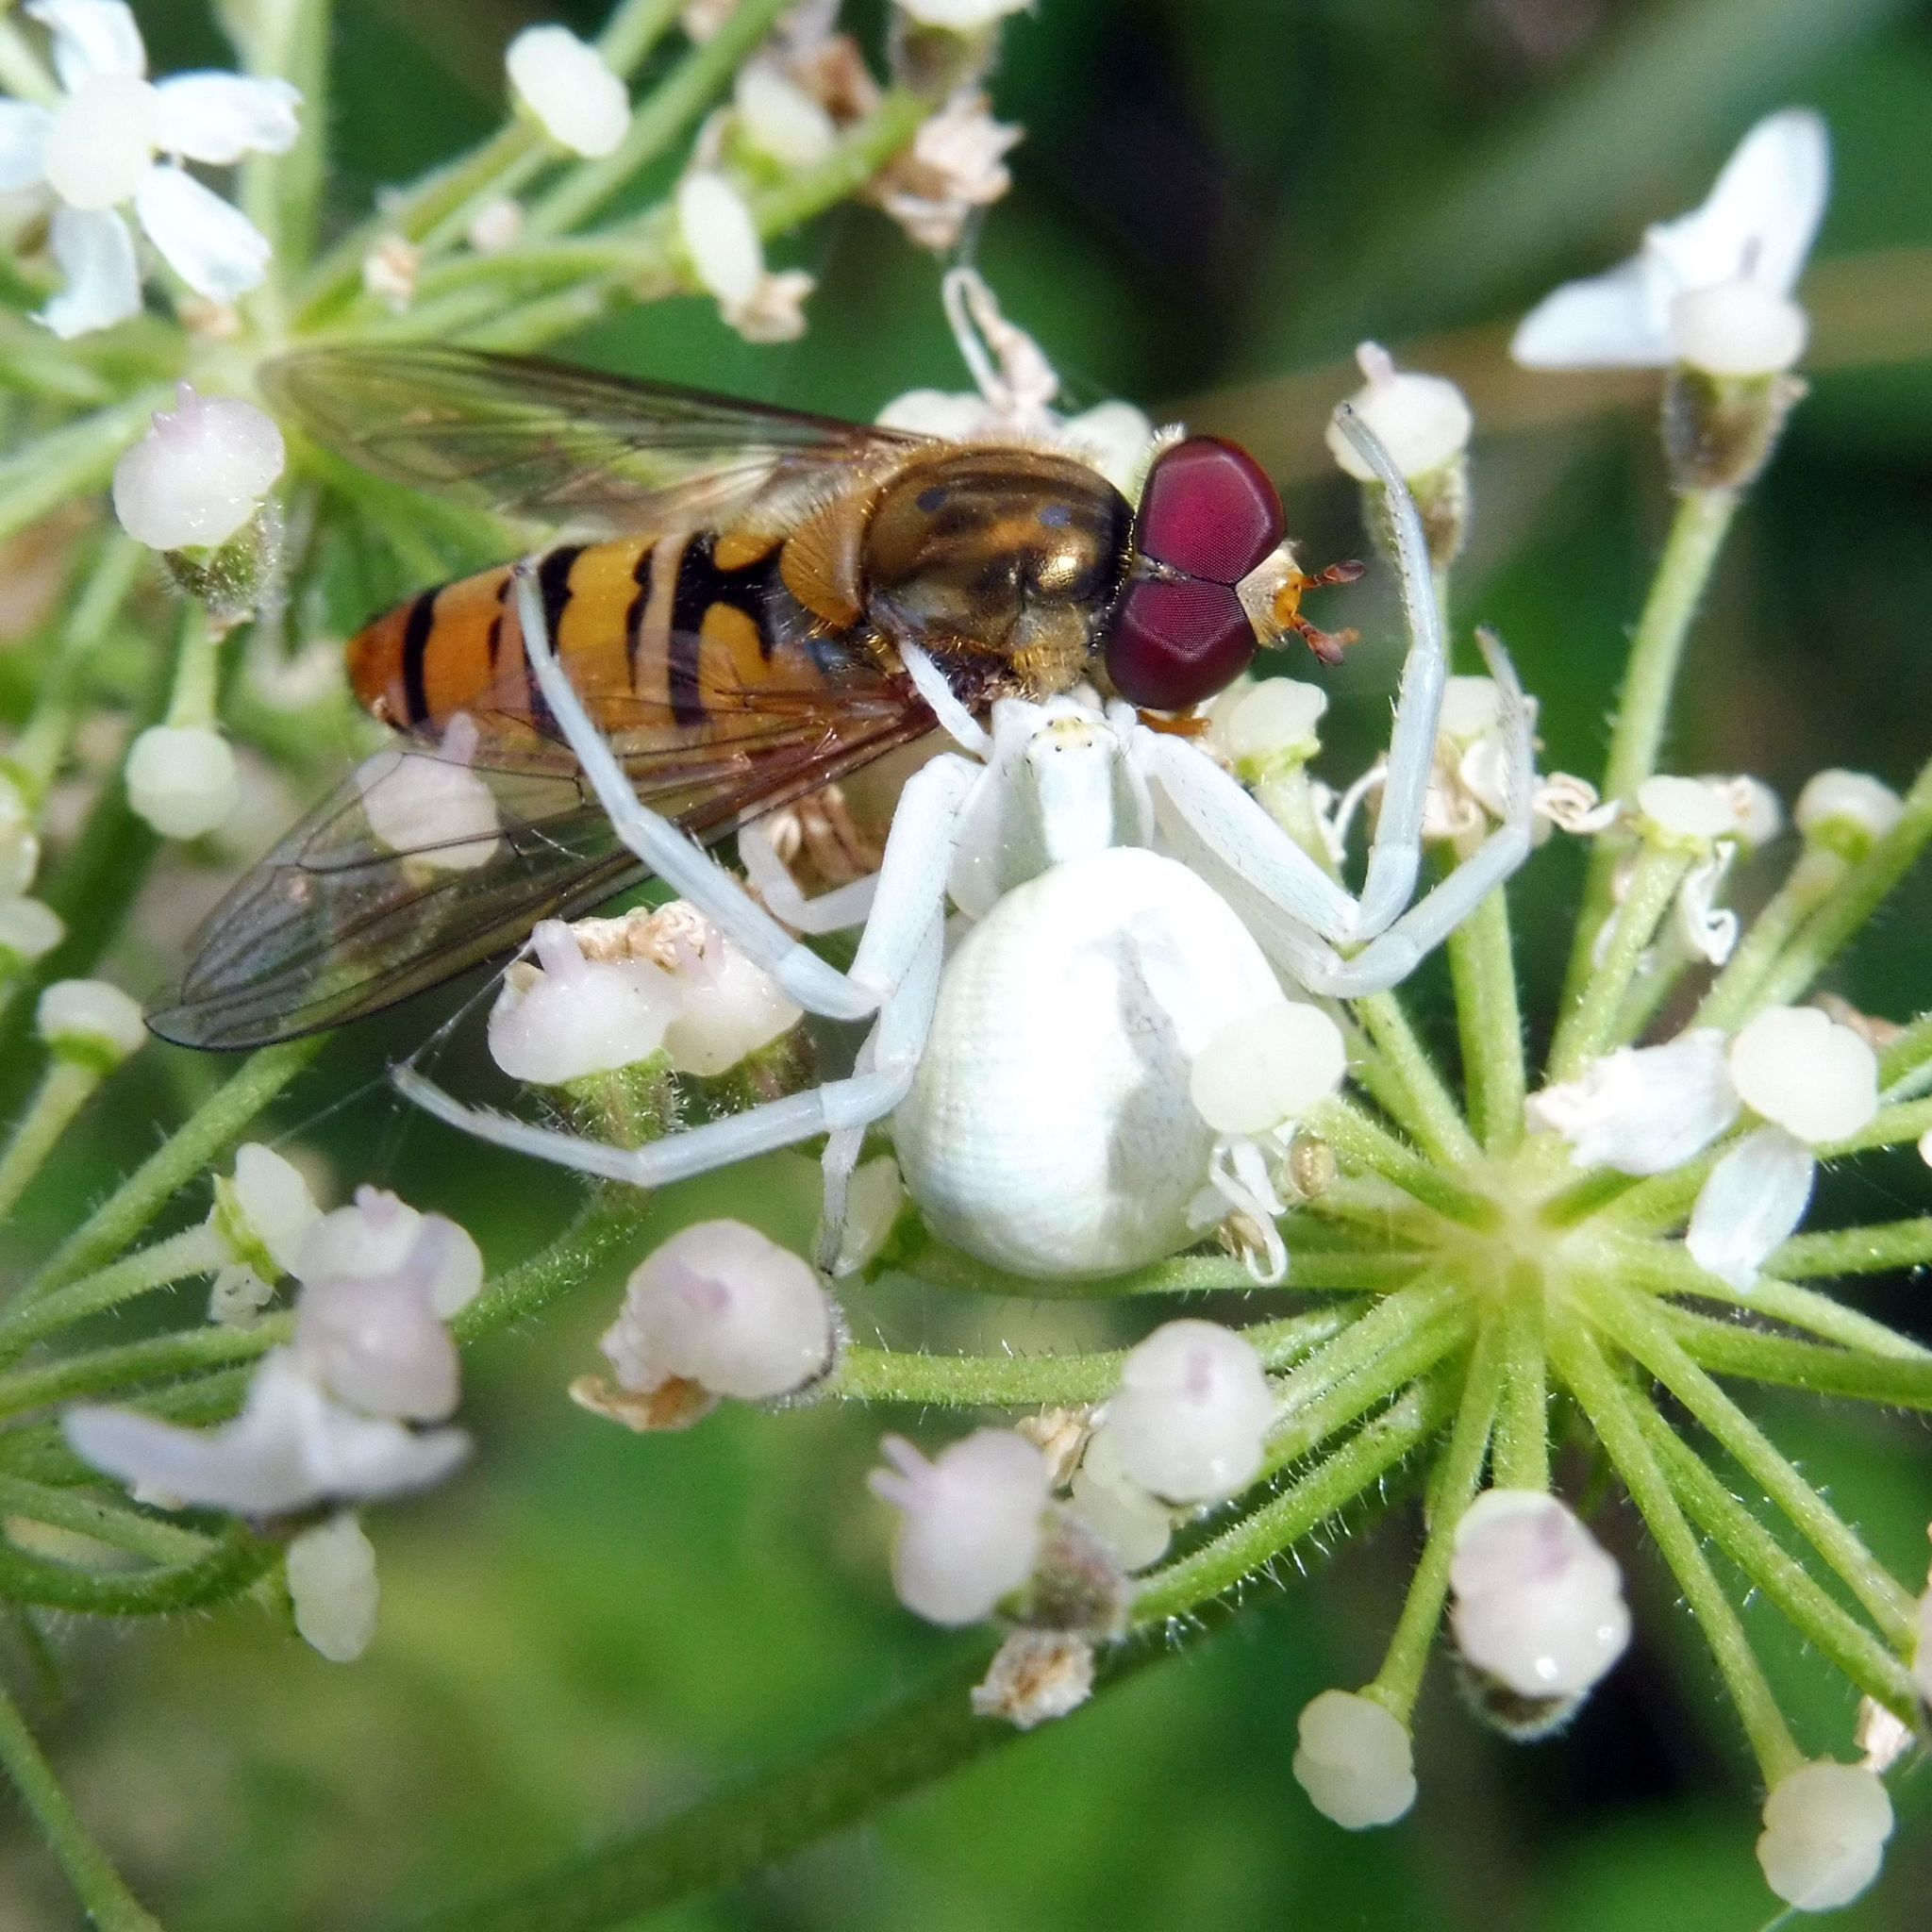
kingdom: Animalia
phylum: Arthropoda
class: Arachnida
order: Araneae
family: Thomisidae
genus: Misumena
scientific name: Misumena vatia
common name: Goldenrod crab spider
